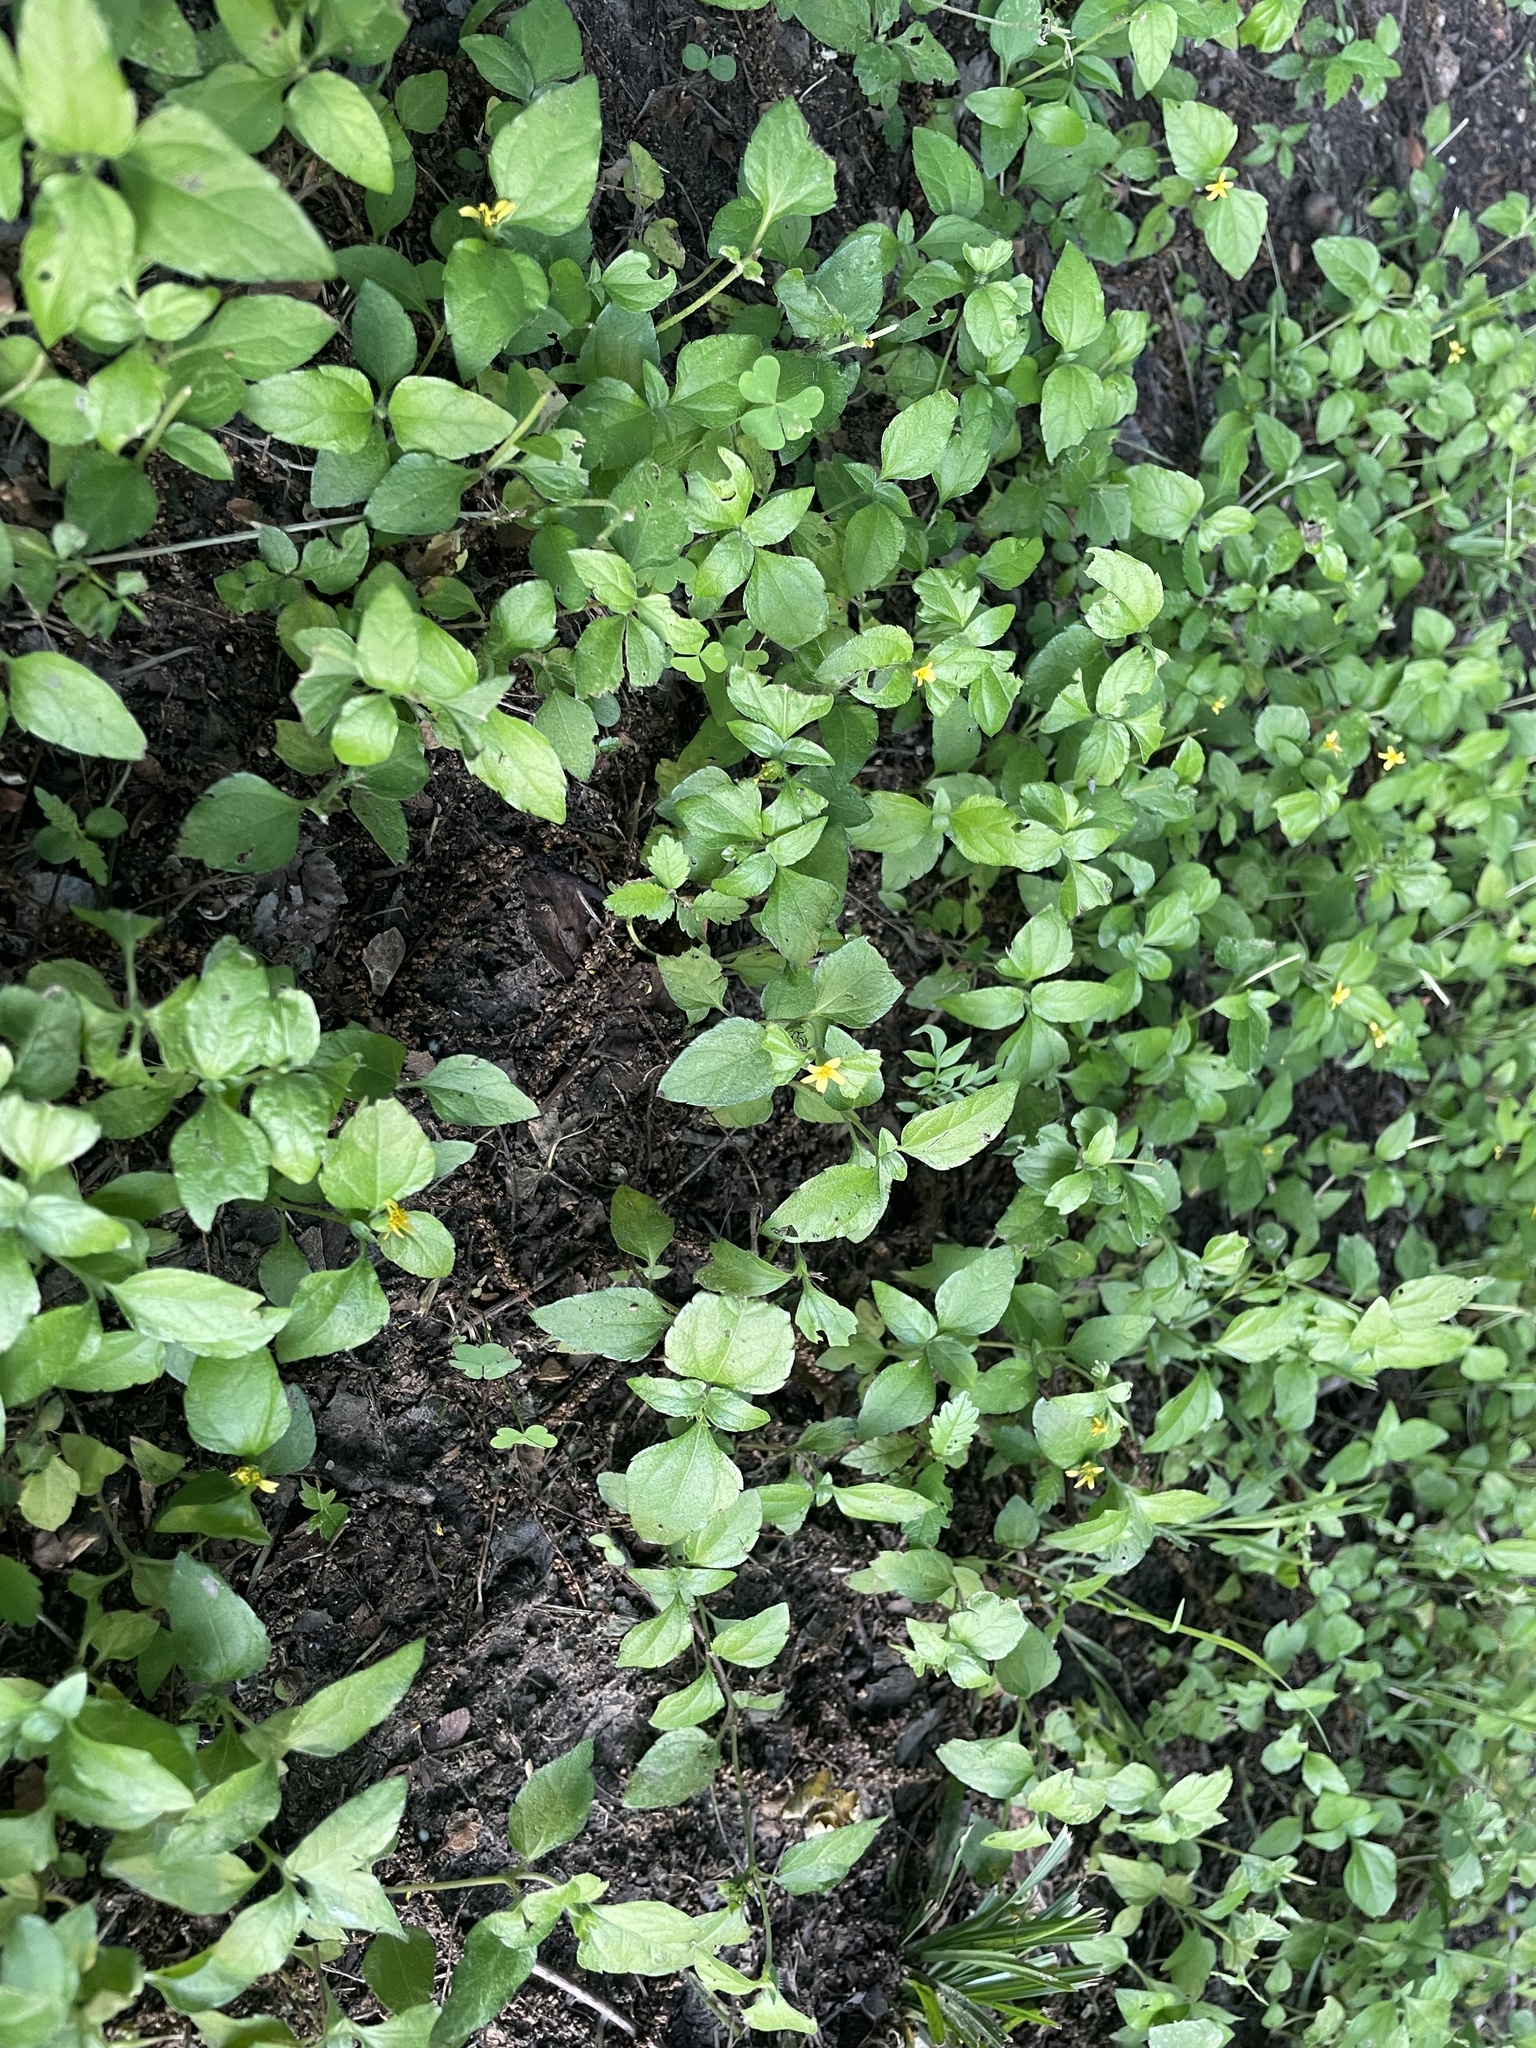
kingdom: Plantae
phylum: Tracheophyta
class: Magnoliopsida
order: Asterales
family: Asteraceae
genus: Calyptocarpus
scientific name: Calyptocarpus vialis
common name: Straggler daisy
